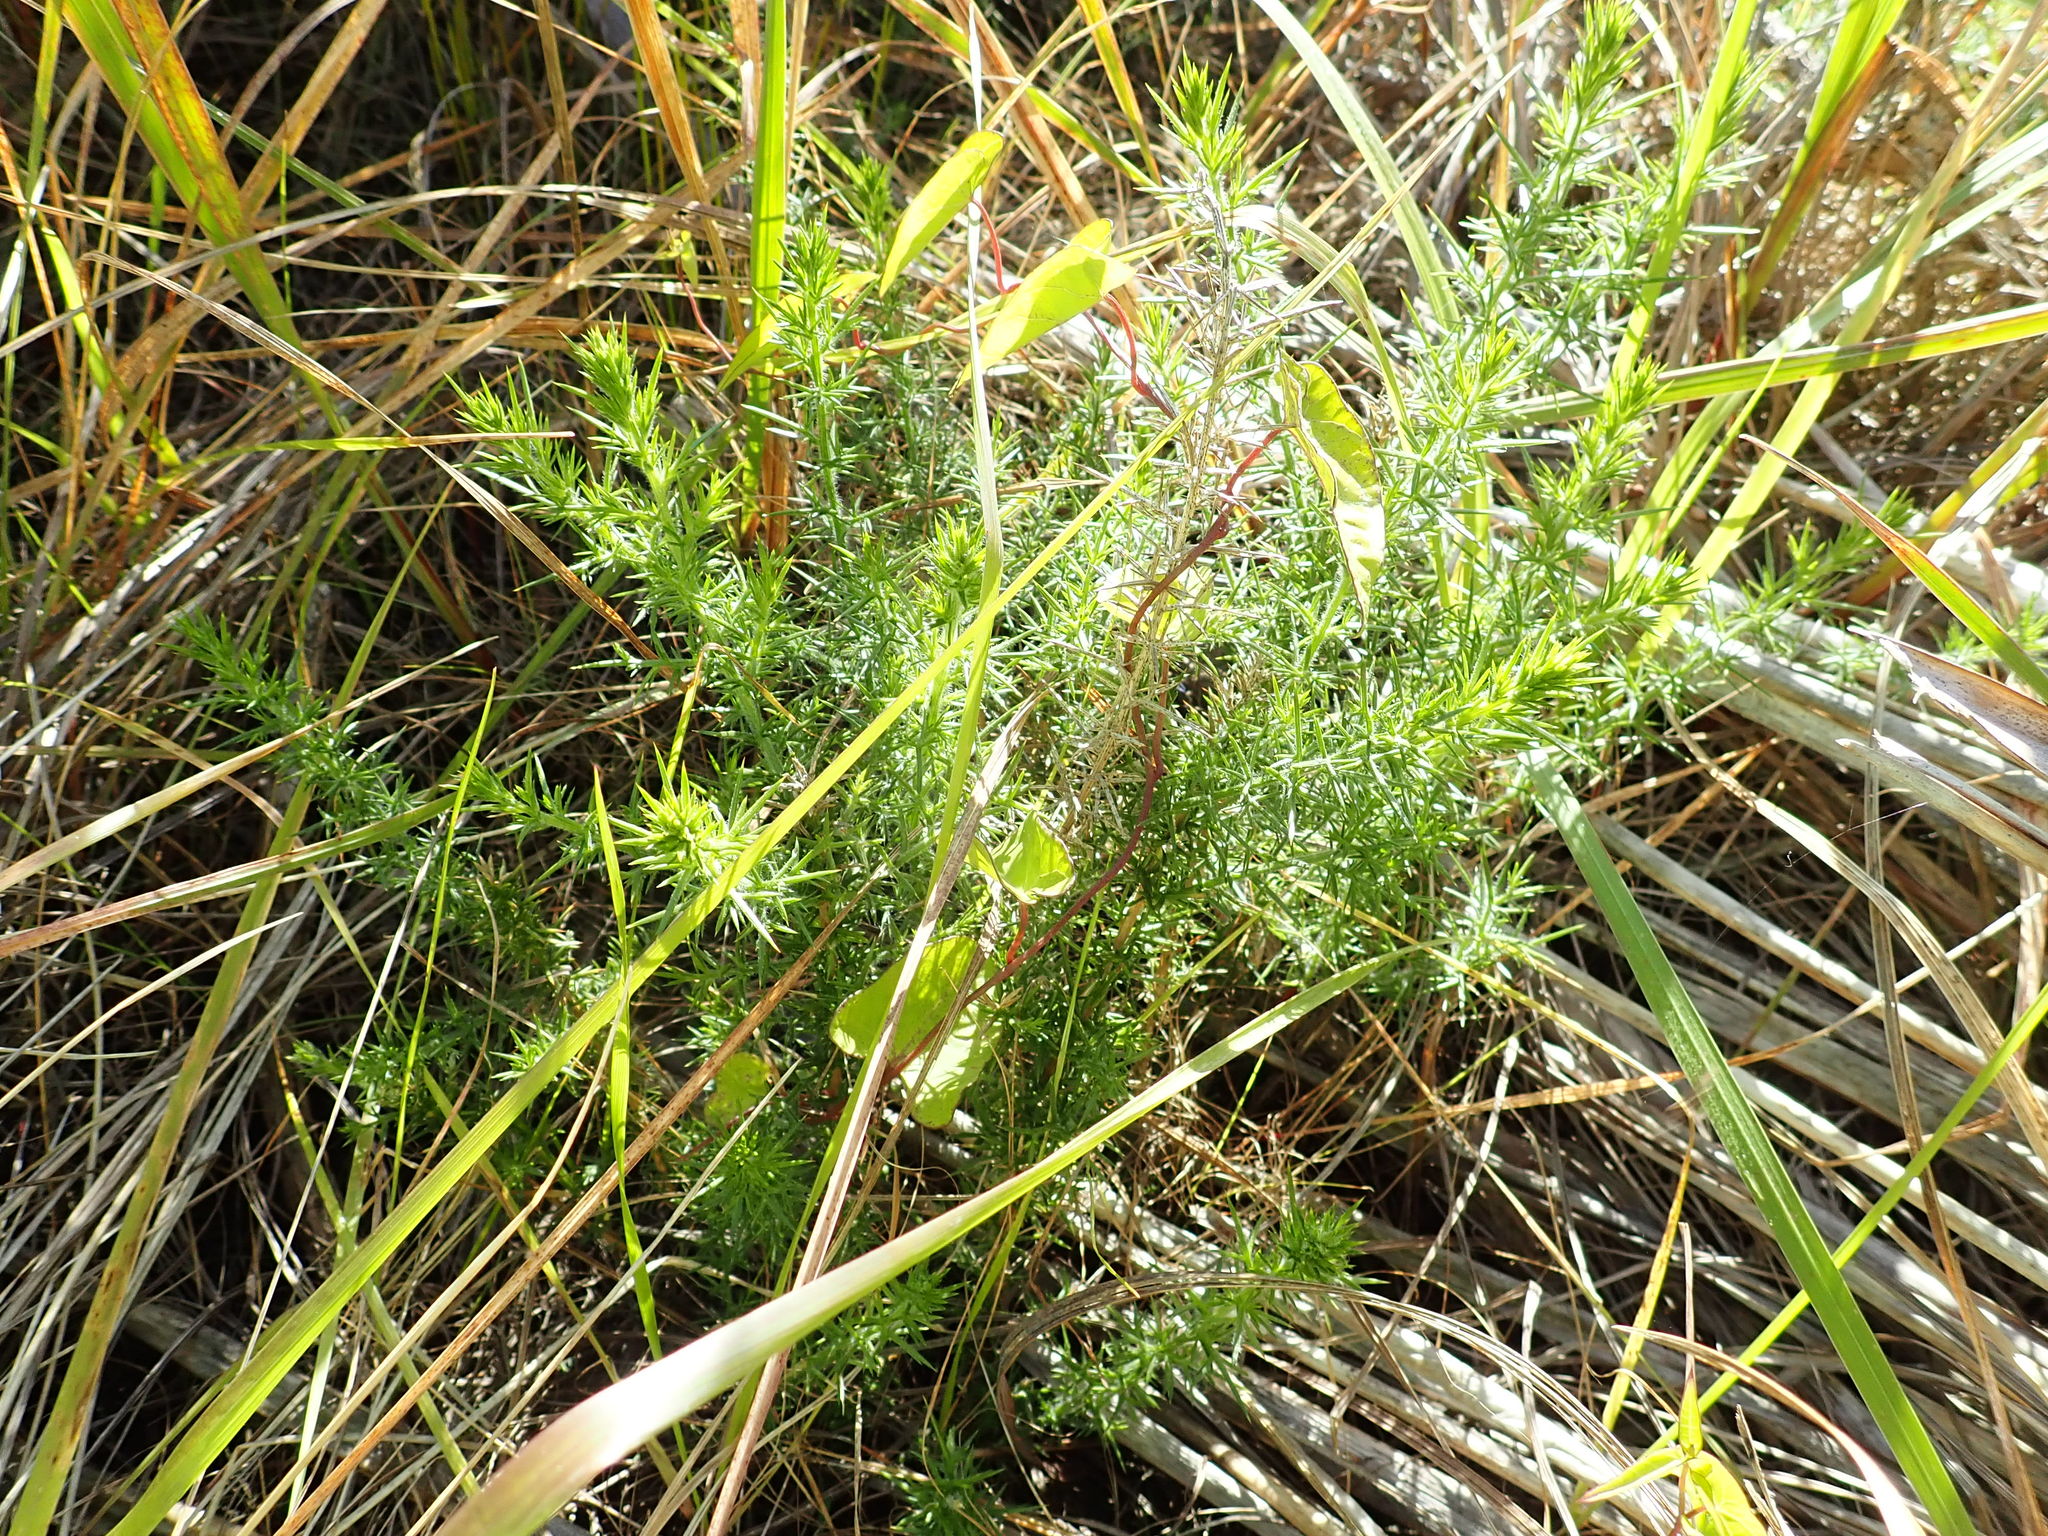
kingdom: Plantae
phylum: Tracheophyta
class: Magnoliopsida
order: Fabales
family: Fabaceae
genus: Ulex
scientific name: Ulex europaeus
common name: Common gorse
